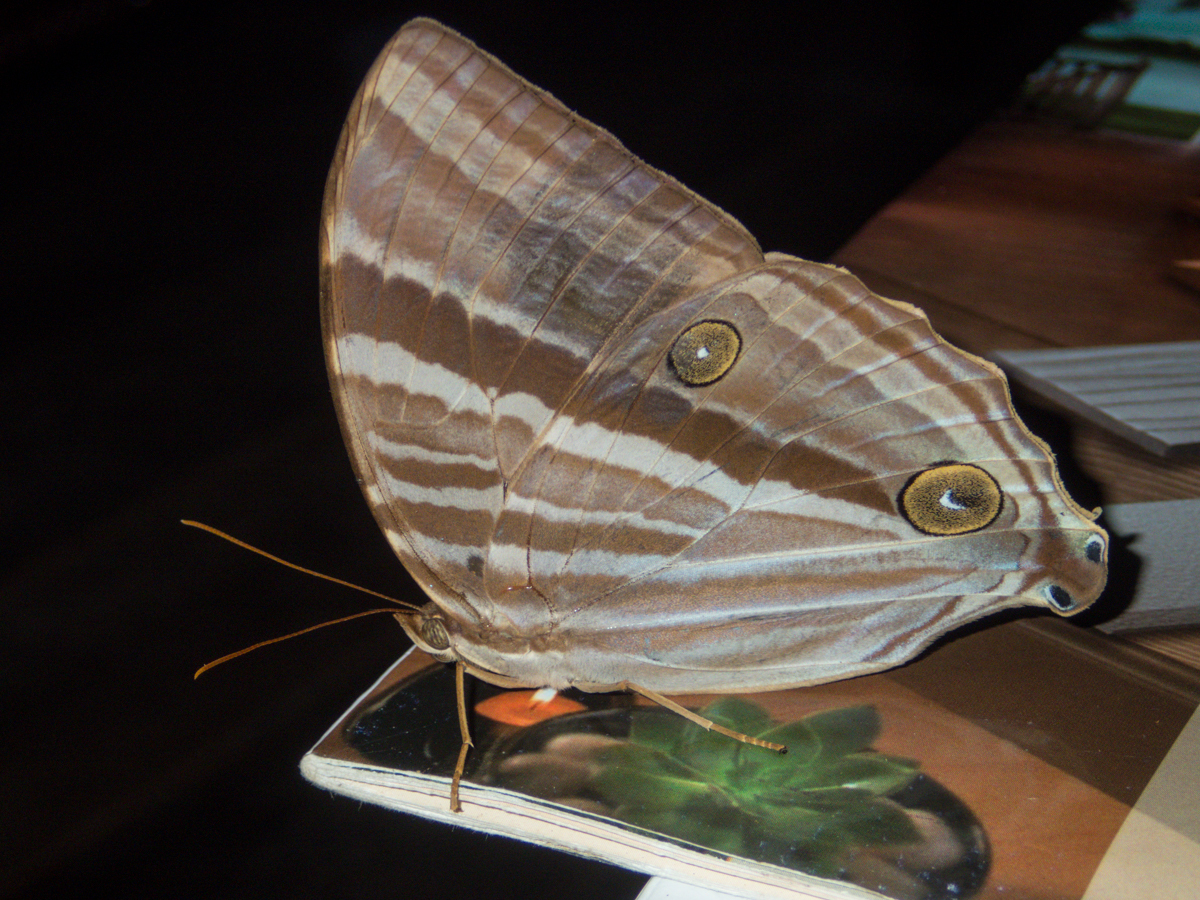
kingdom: Animalia
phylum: Arthropoda
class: Insecta
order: Lepidoptera
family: Nymphalidae
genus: Amathusia
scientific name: Amathusia phidippus
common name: Palm king
